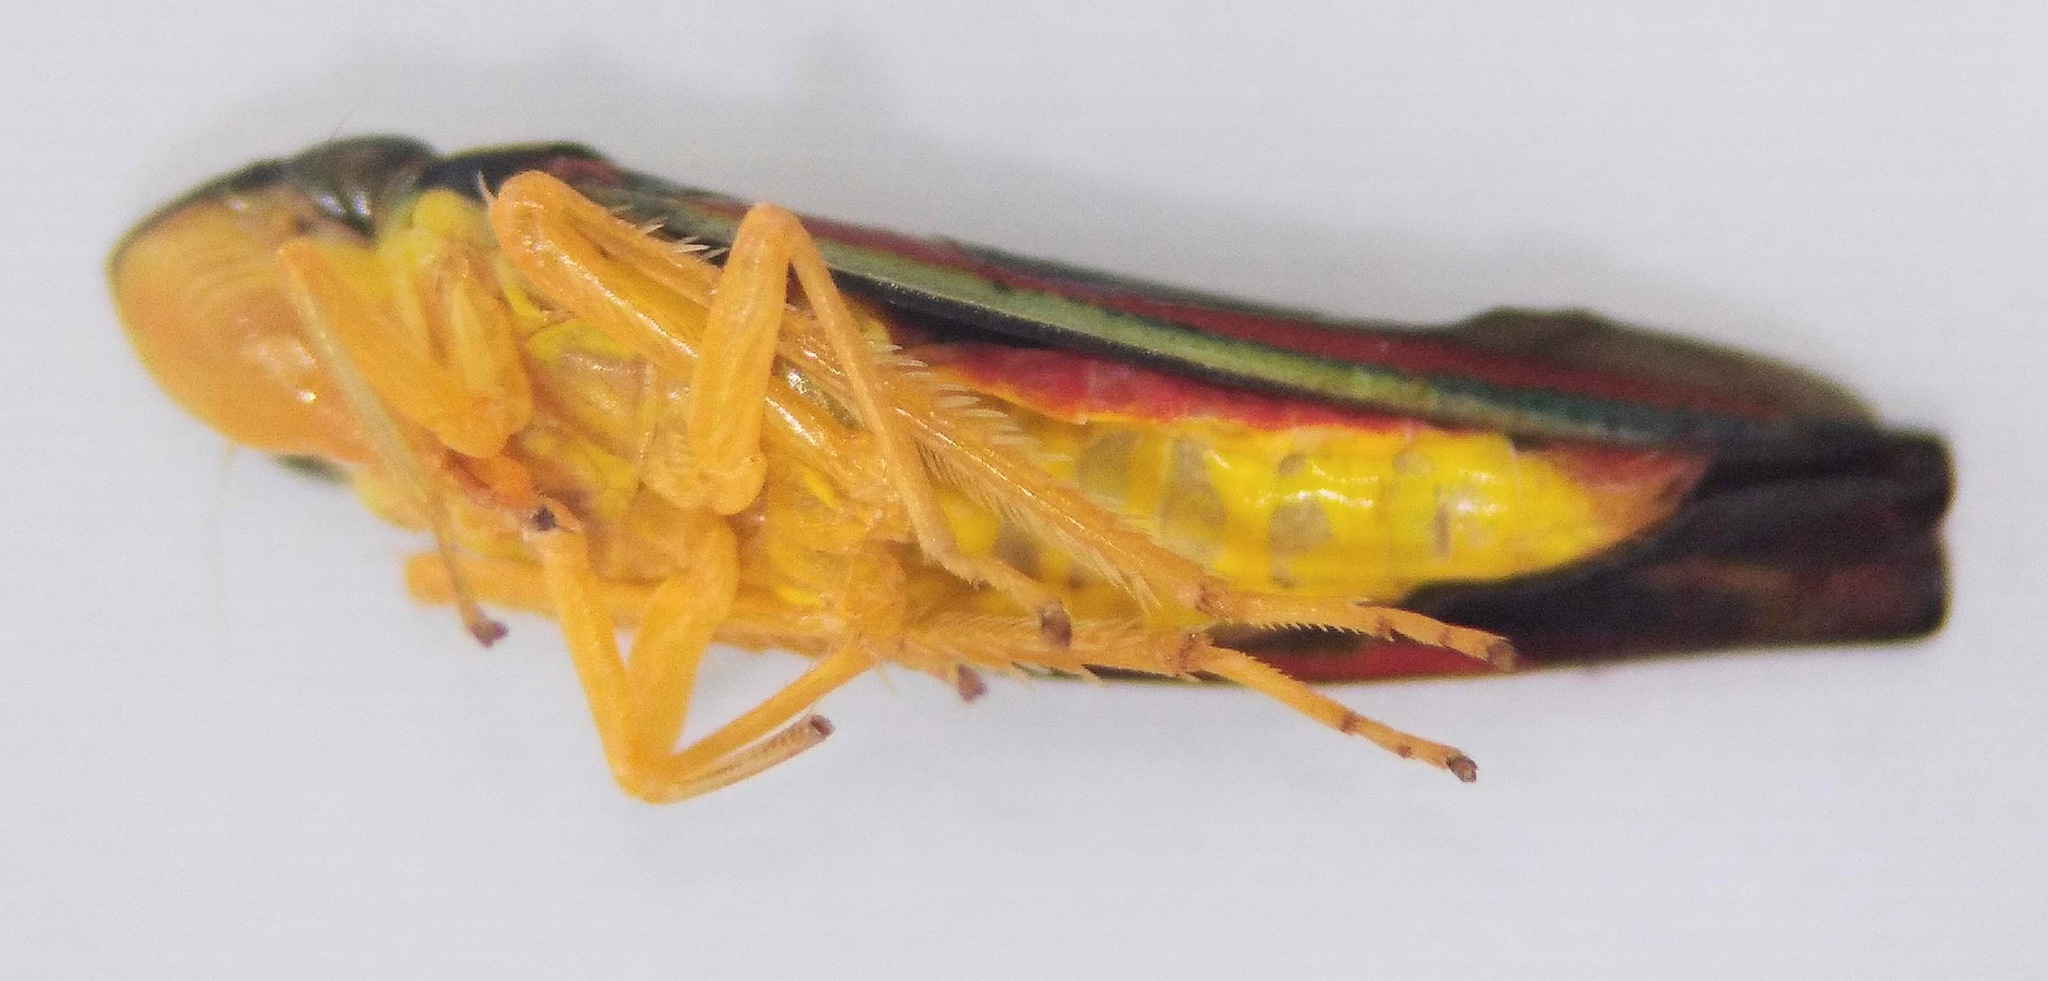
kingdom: Animalia
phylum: Arthropoda
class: Insecta
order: Hemiptera
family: Cicadellidae
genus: Graphocephala
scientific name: Graphocephala coccinea
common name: Candy-striped leafhopper
